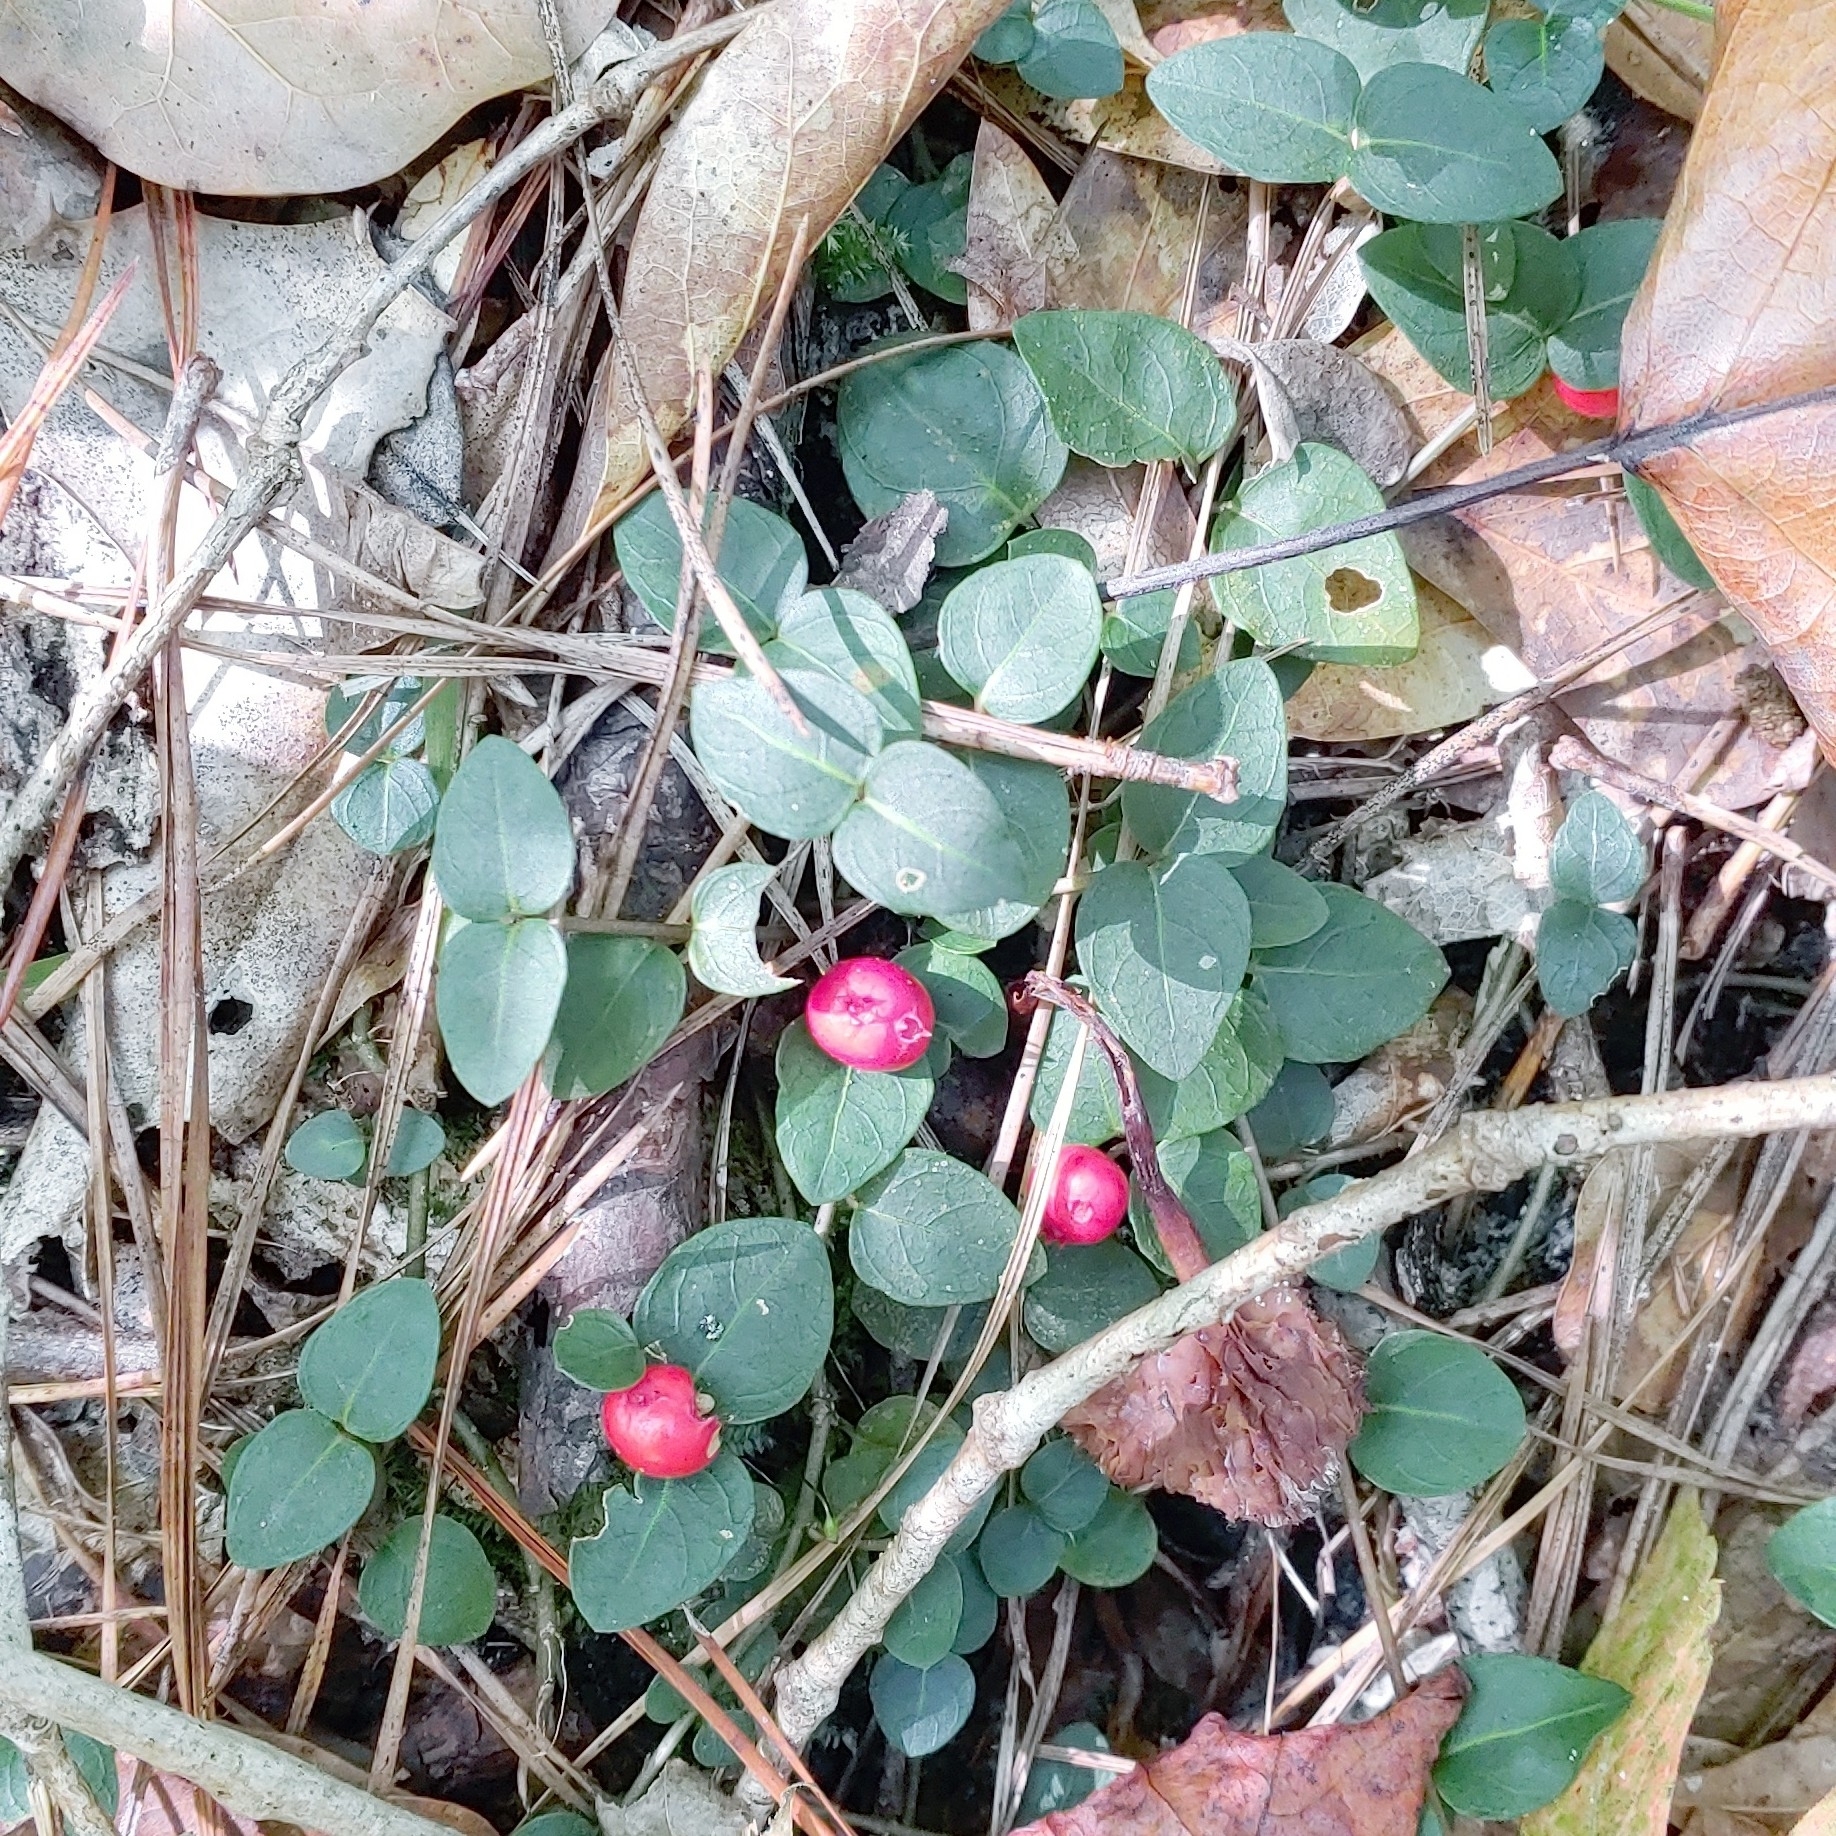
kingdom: Plantae
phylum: Tracheophyta
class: Magnoliopsida
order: Gentianales
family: Rubiaceae
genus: Mitchella
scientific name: Mitchella repens
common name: Partridge-berry
